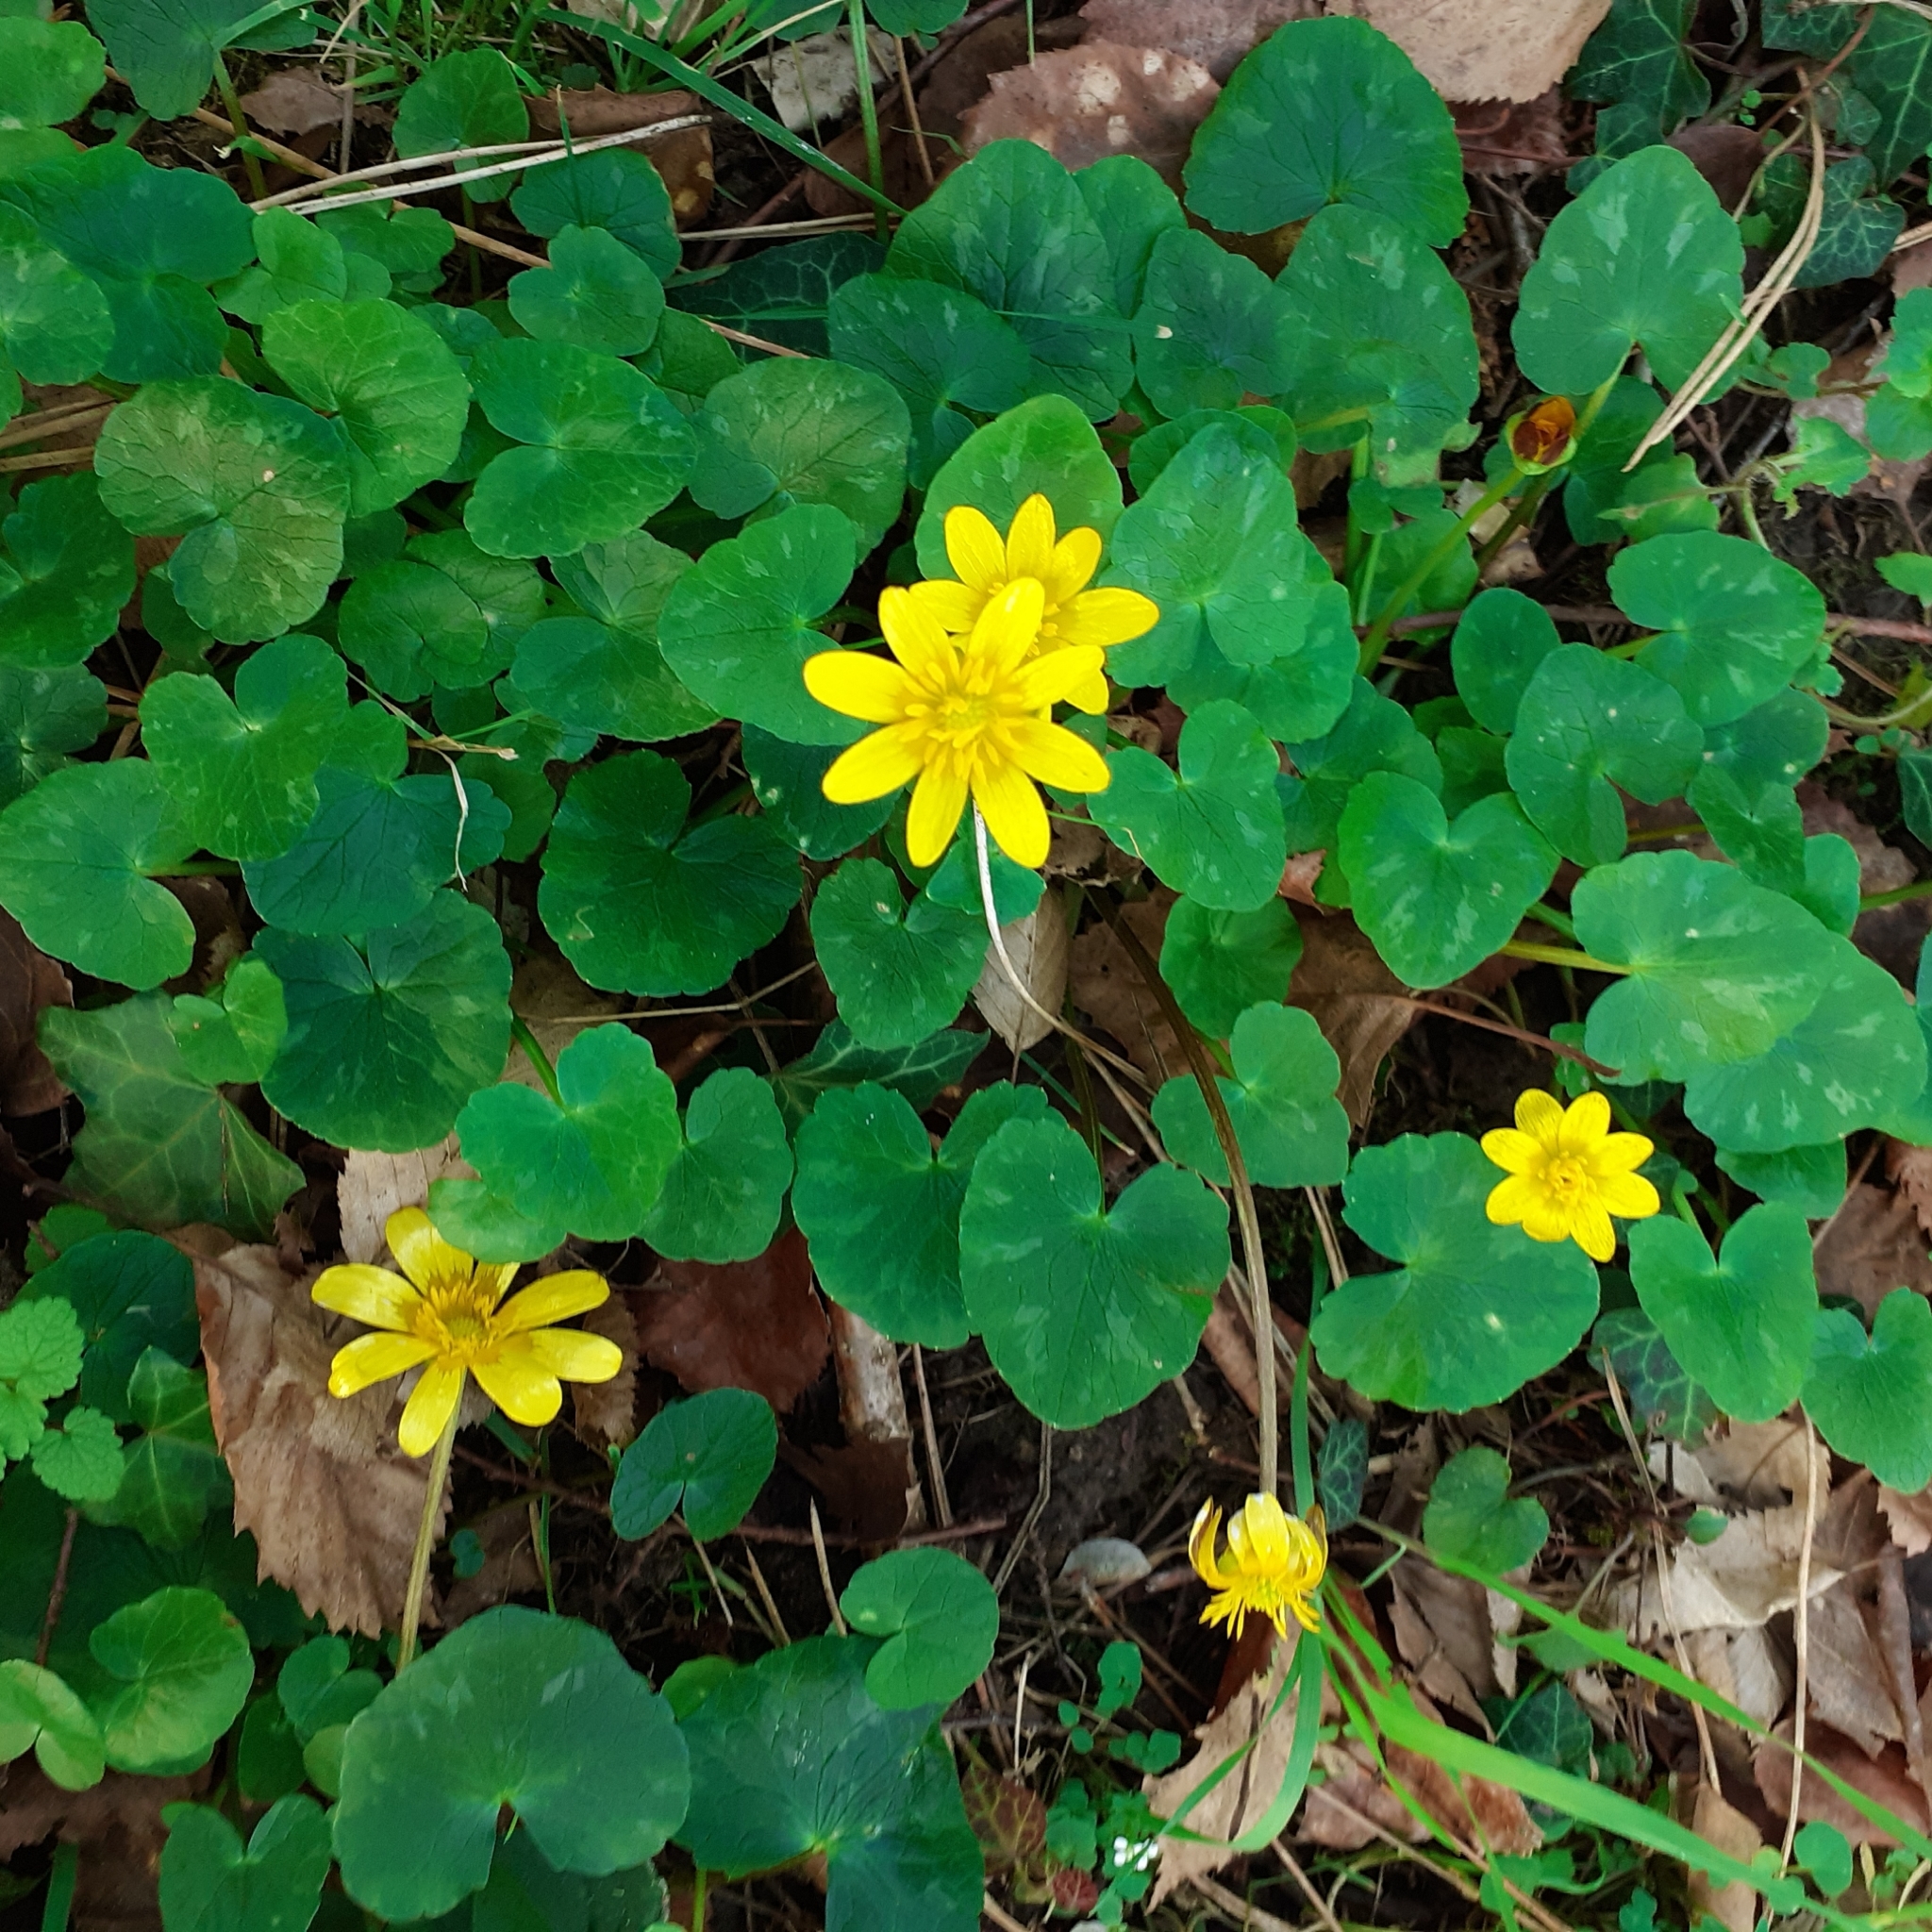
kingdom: Plantae
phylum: Tracheophyta
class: Magnoliopsida
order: Ranunculales
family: Ranunculaceae
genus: Ficaria
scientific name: Ficaria verna
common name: Lesser celandine
